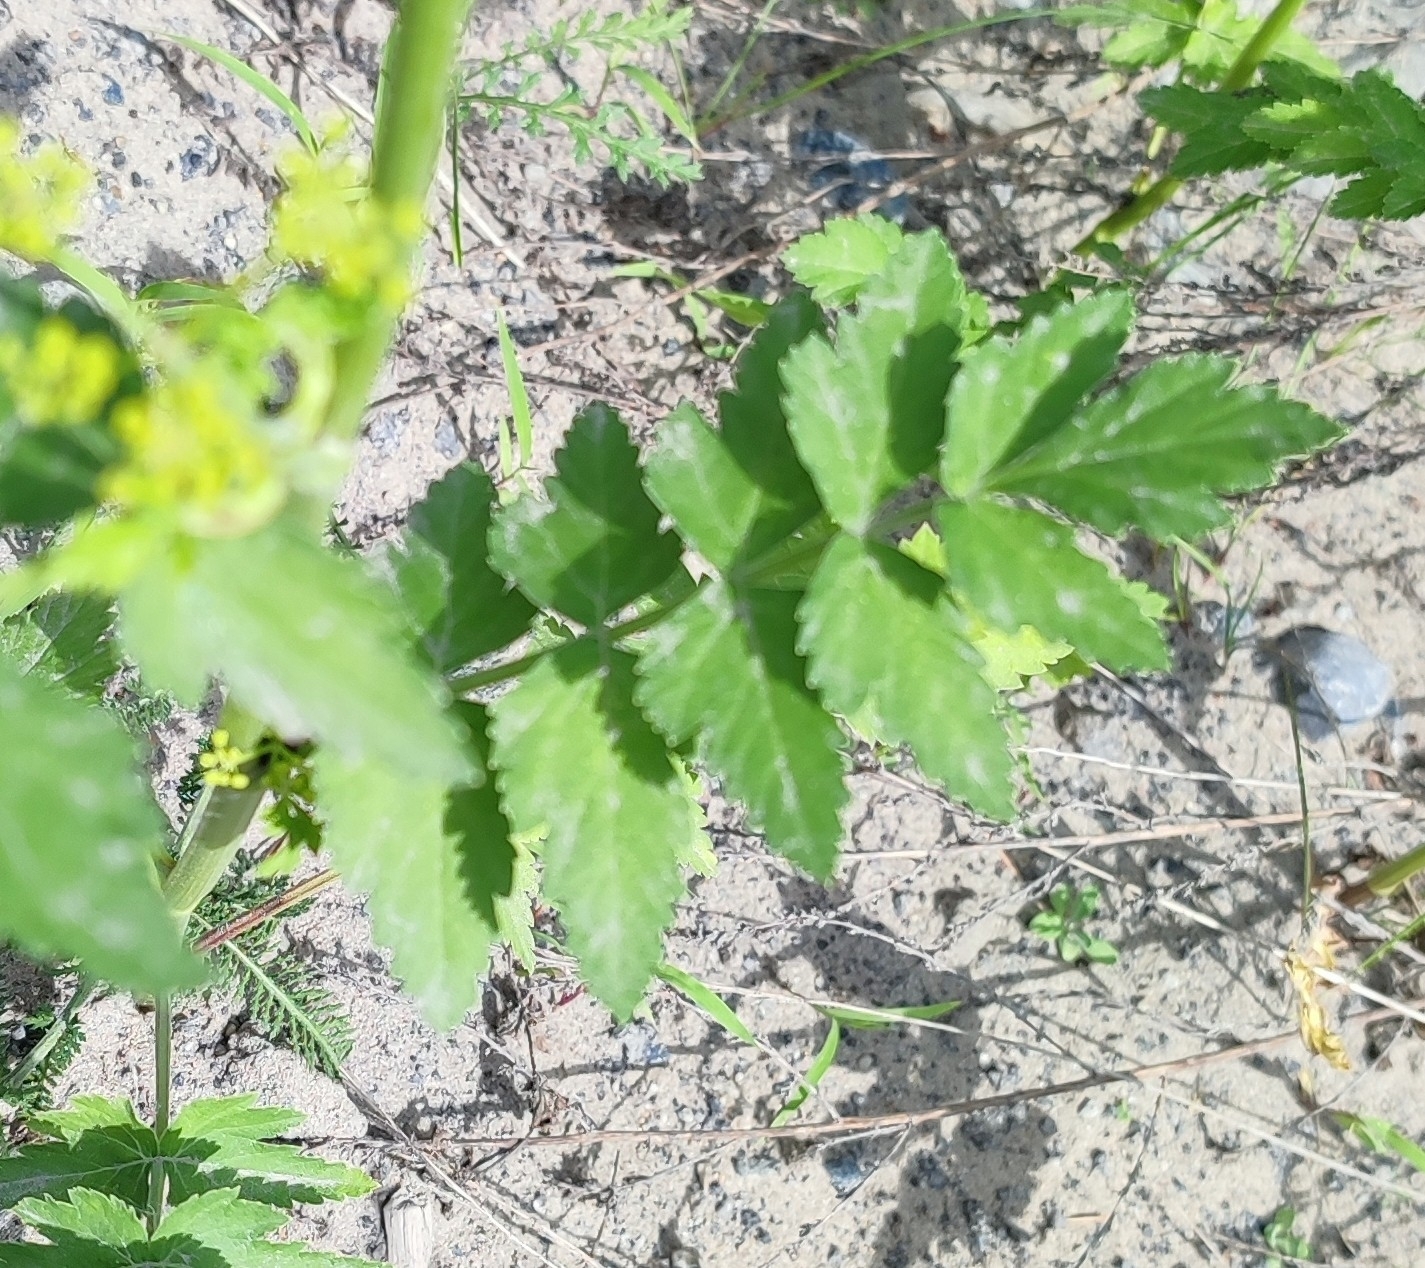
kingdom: Plantae
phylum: Tracheophyta
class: Magnoliopsida
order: Apiales
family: Apiaceae
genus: Pastinaca
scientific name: Pastinaca sativa
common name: Wild parsnip
